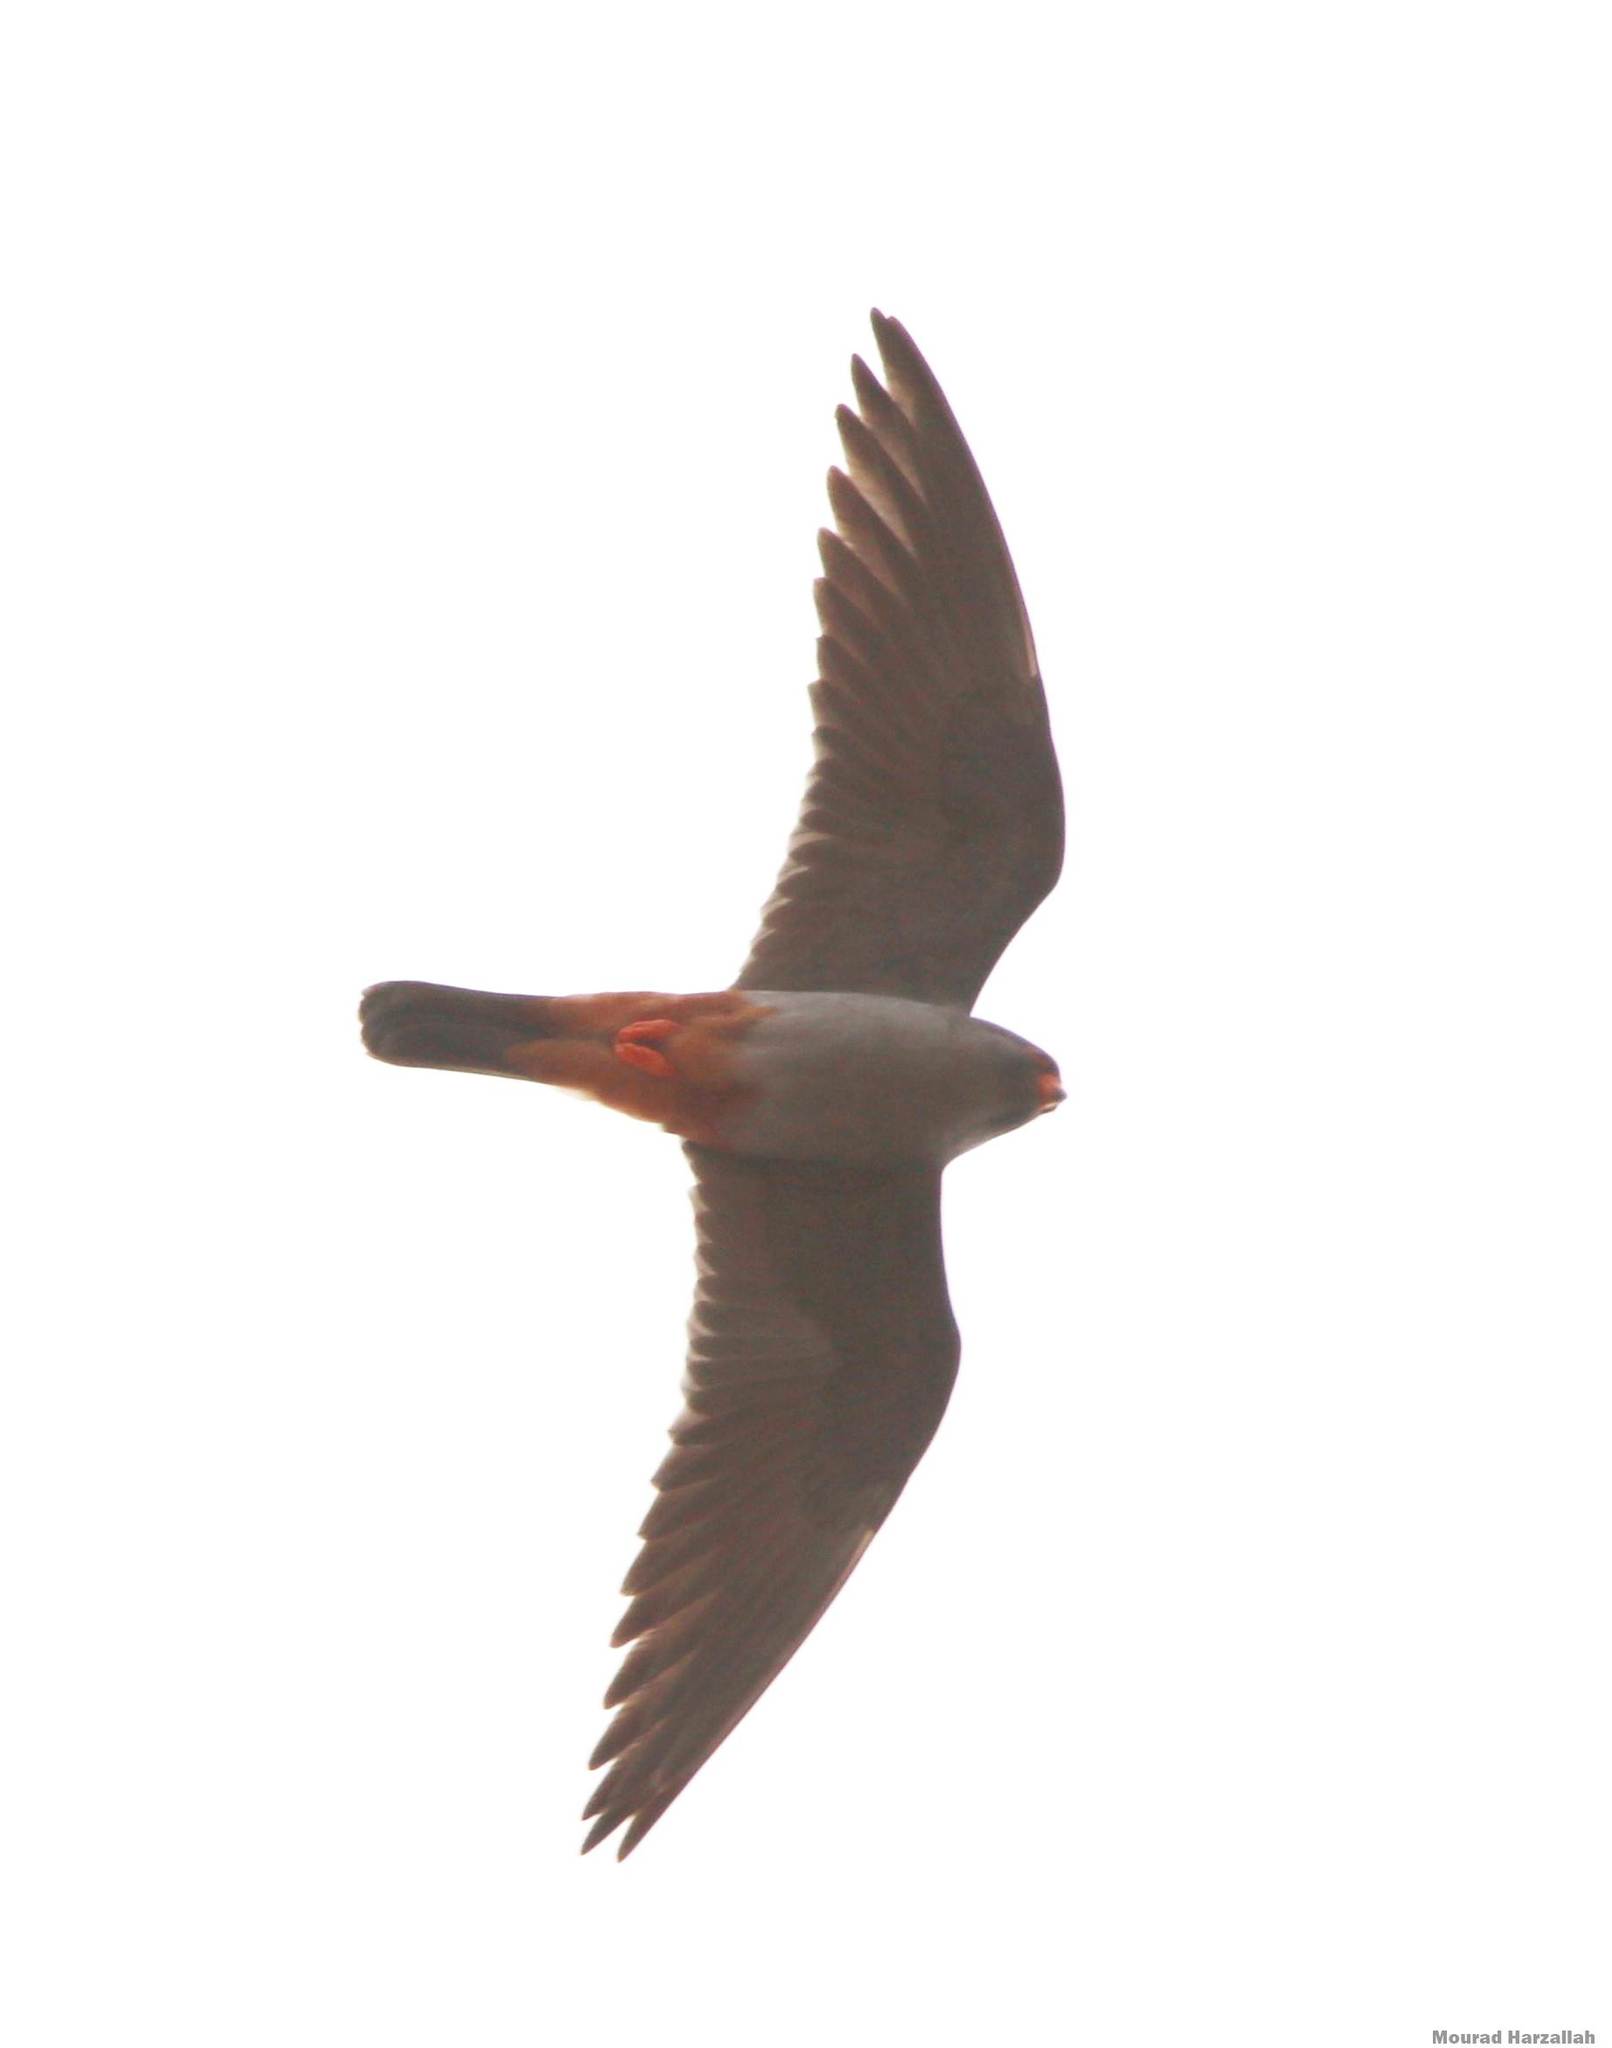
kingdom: Animalia
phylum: Chordata
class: Aves
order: Falconiformes
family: Falconidae
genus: Falco
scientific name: Falco vespertinus
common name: Red-footed falcon
